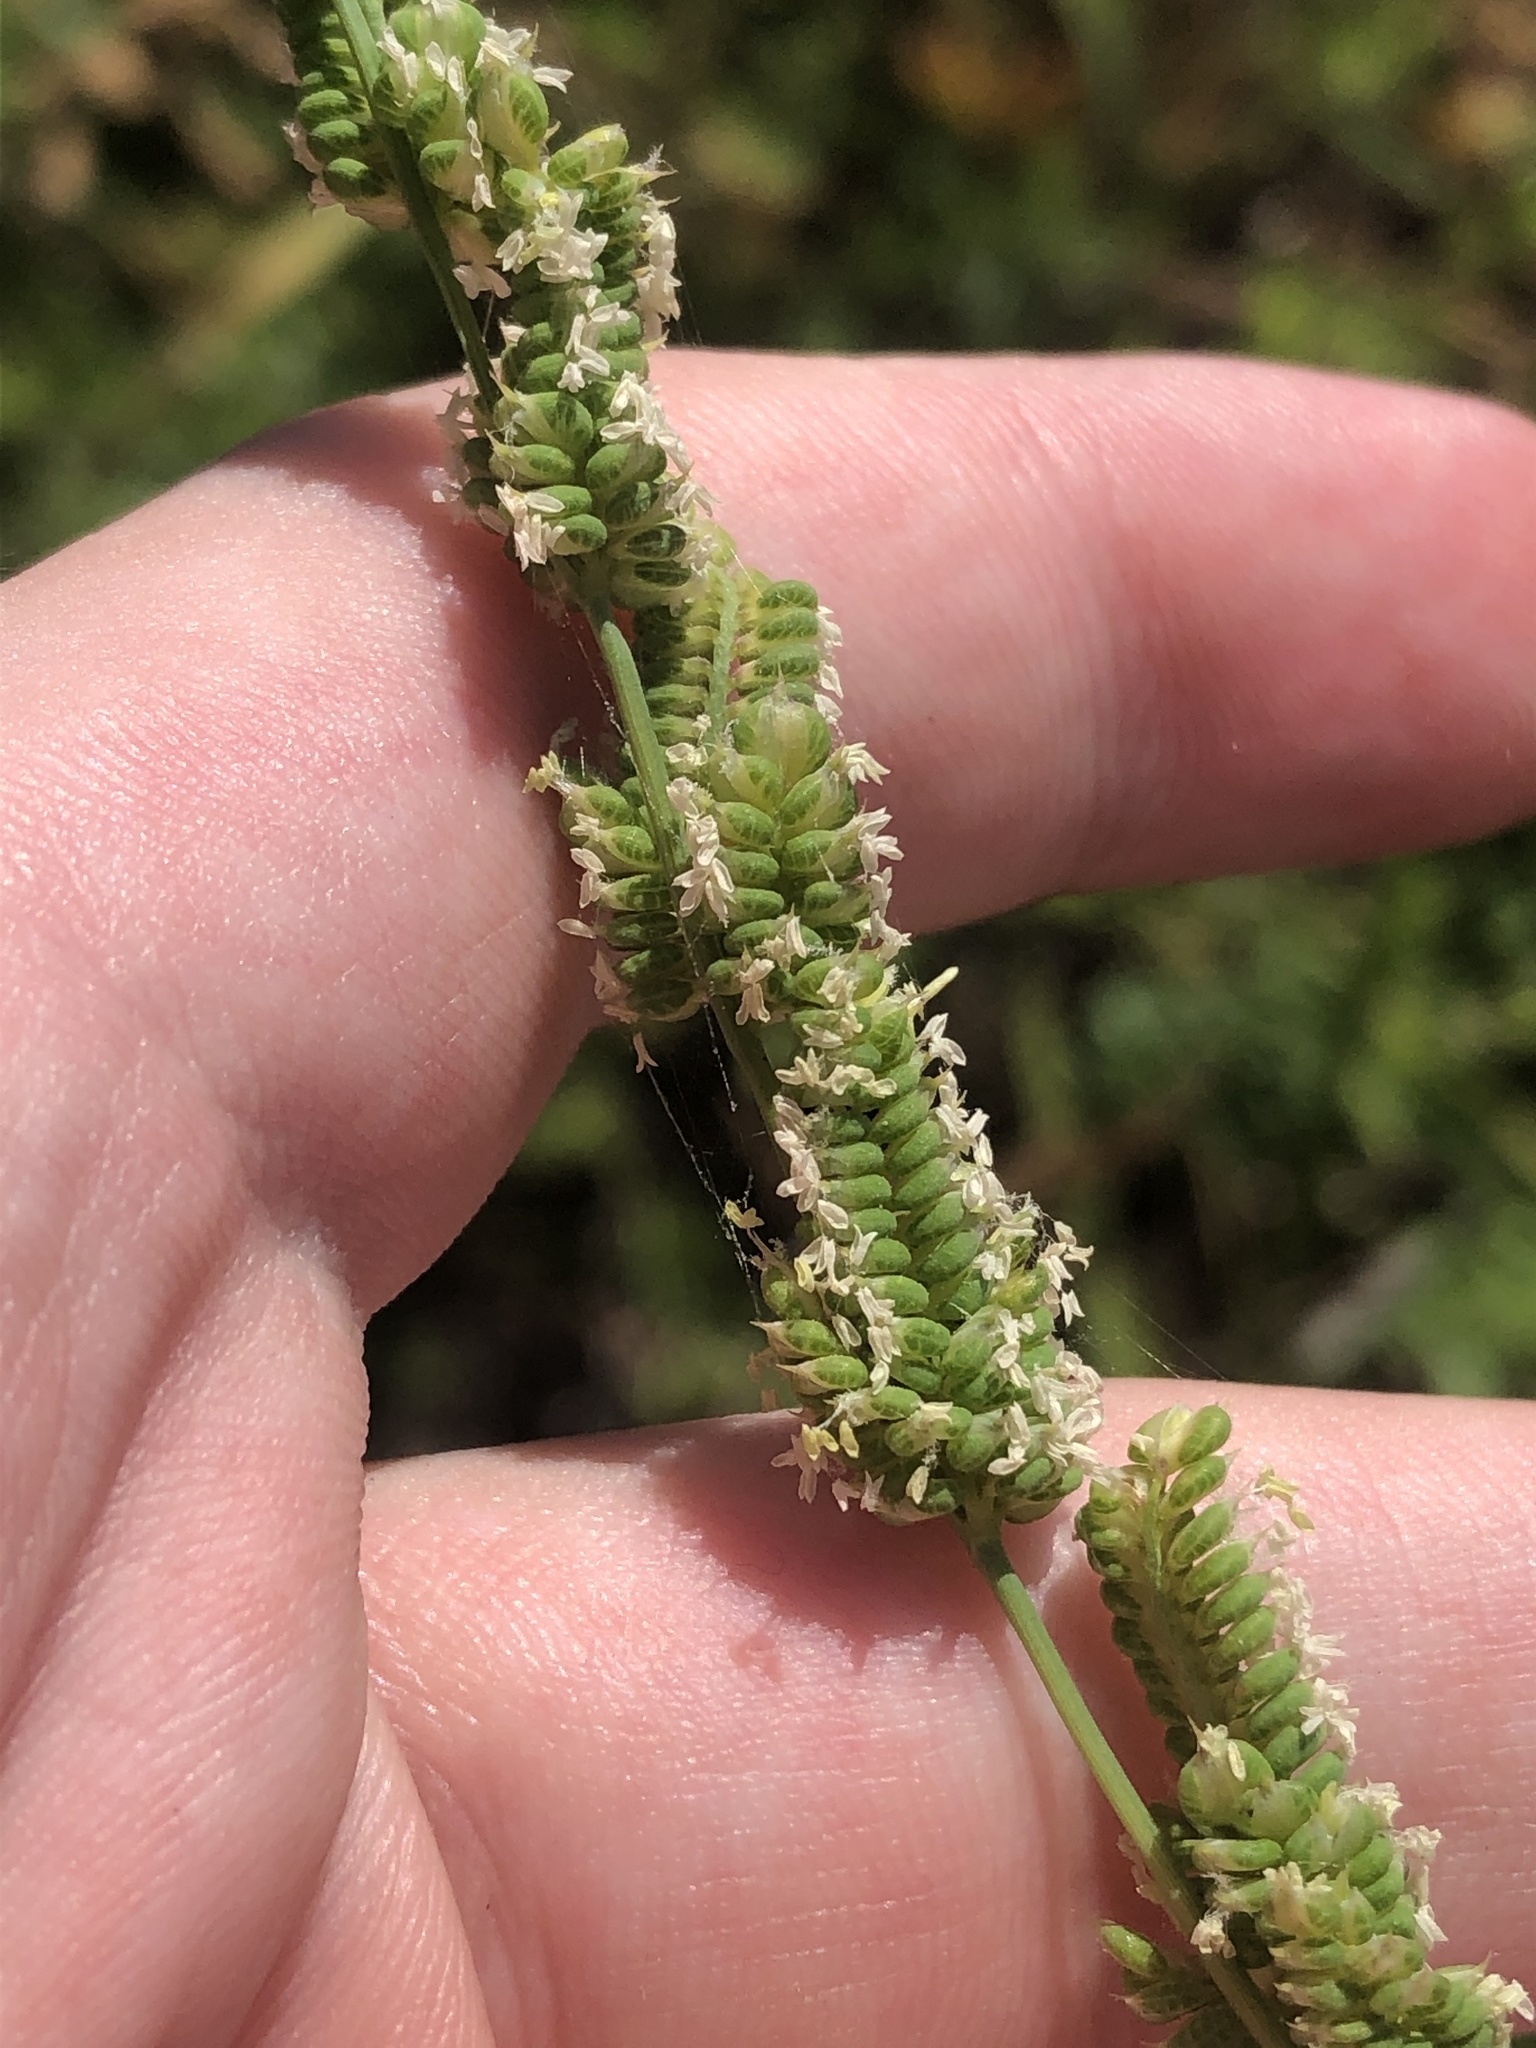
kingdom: Plantae
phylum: Tracheophyta
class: Liliopsida
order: Poales
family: Poaceae
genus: Beckmannia
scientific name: Beckmannia syzigachne
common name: American slough-grass
